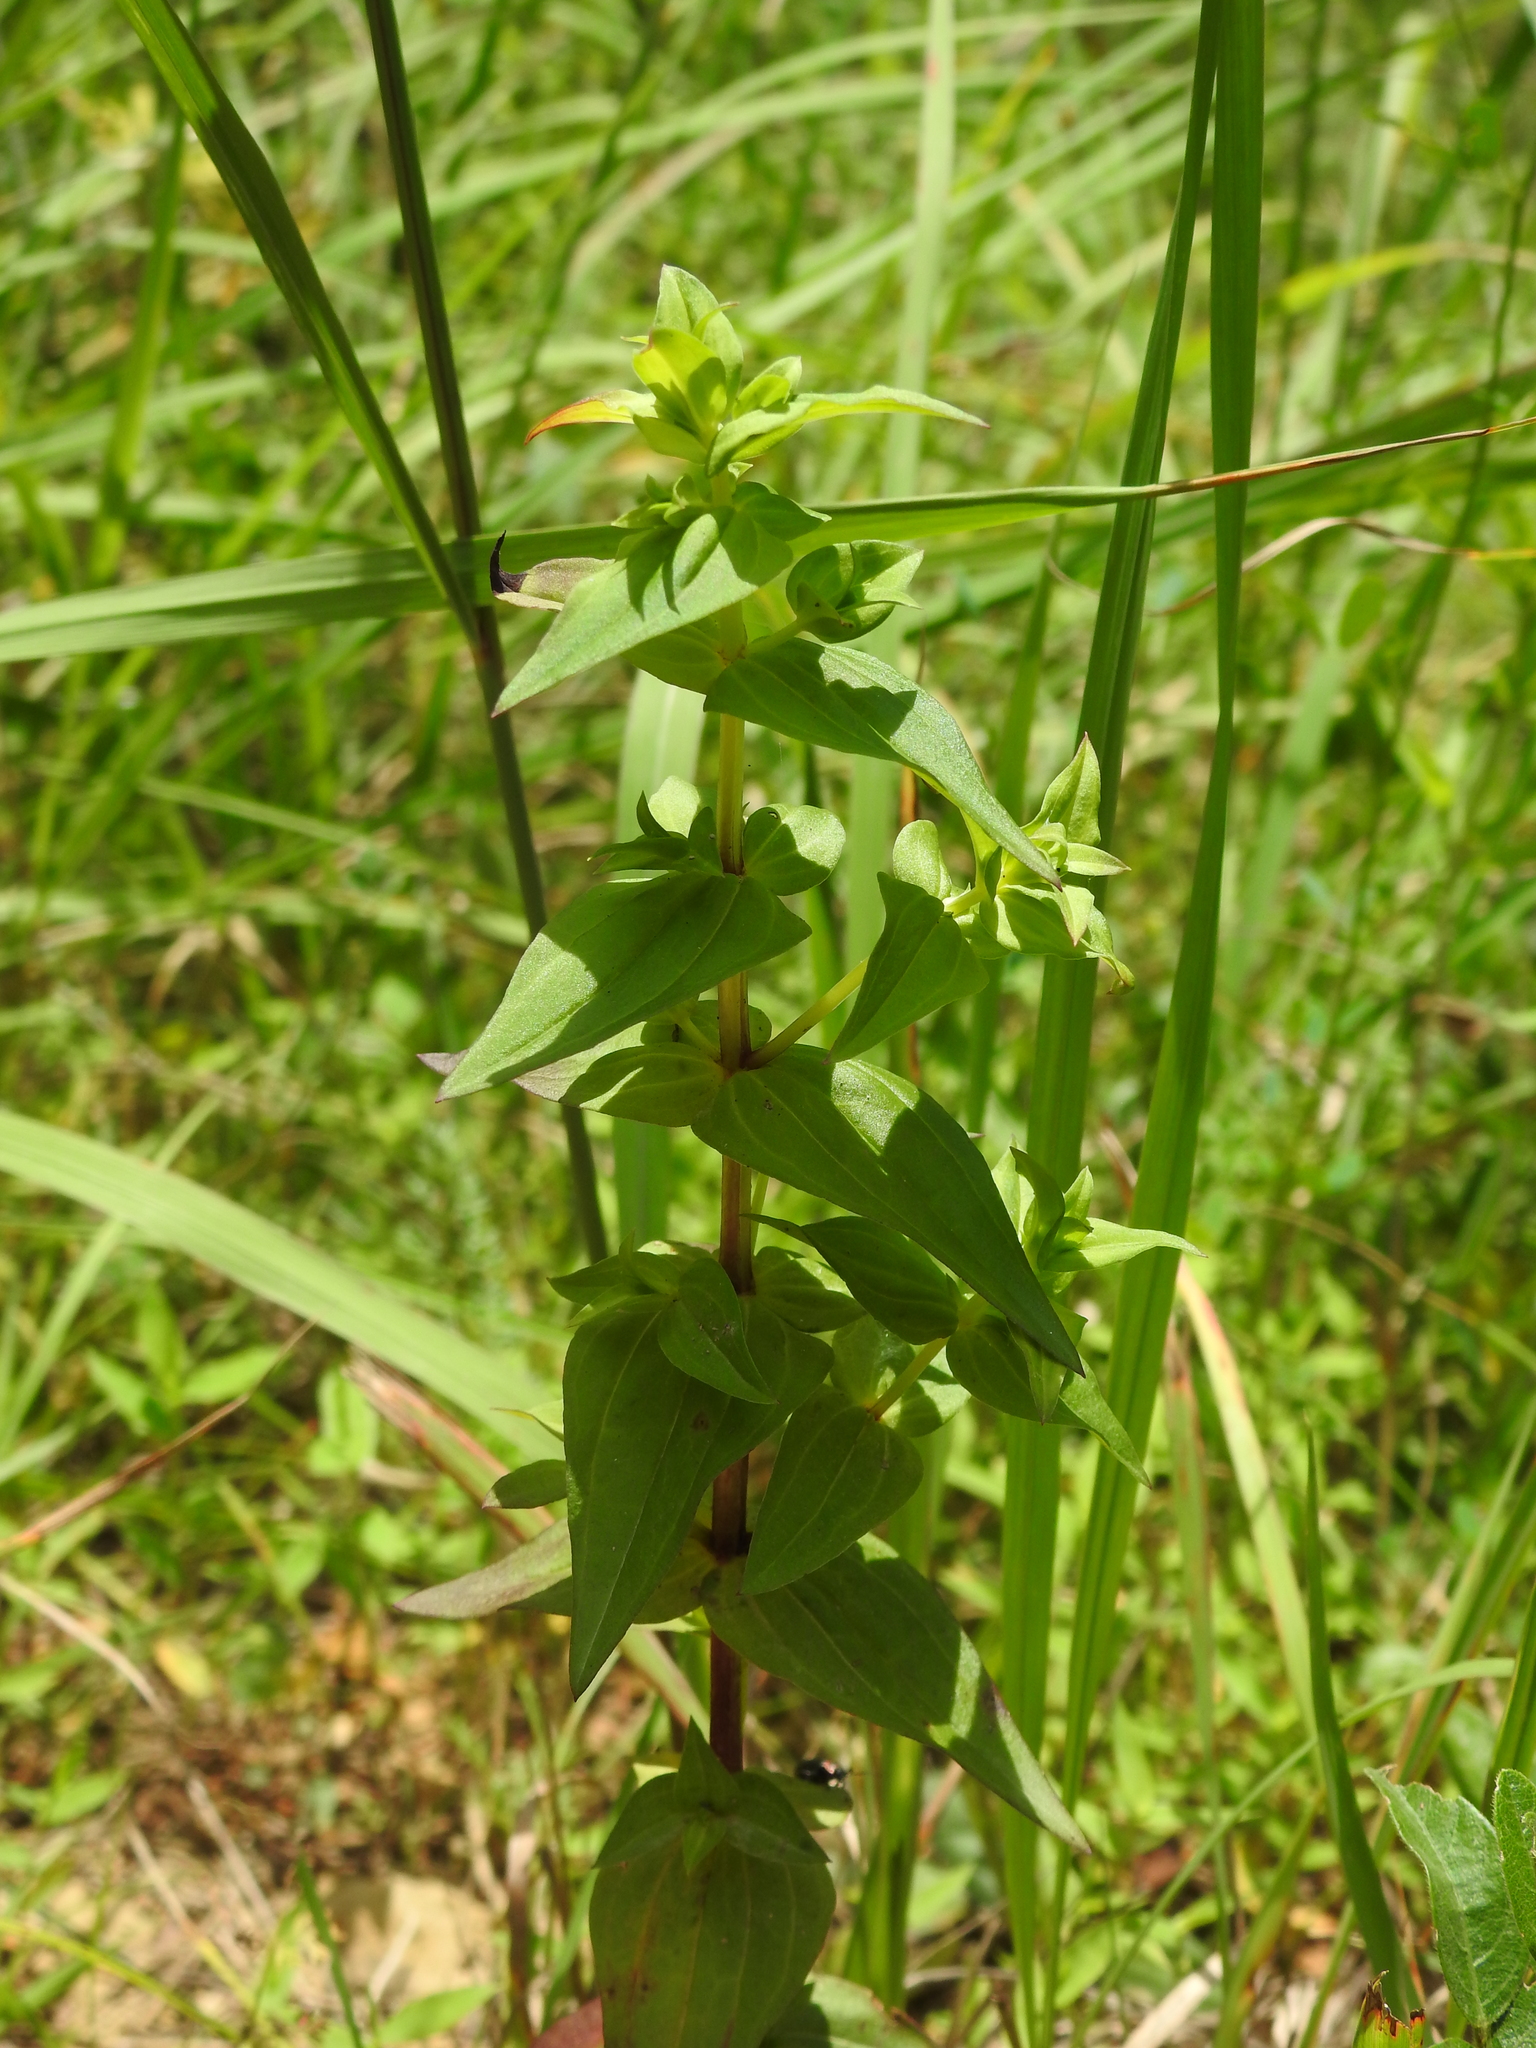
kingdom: Plantae
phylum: Tracheophyta
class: Magnoliopsida
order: Gentianales
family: Gentianaceae
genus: Sabatia
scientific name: Sabatia angularis
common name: Rose-pink
